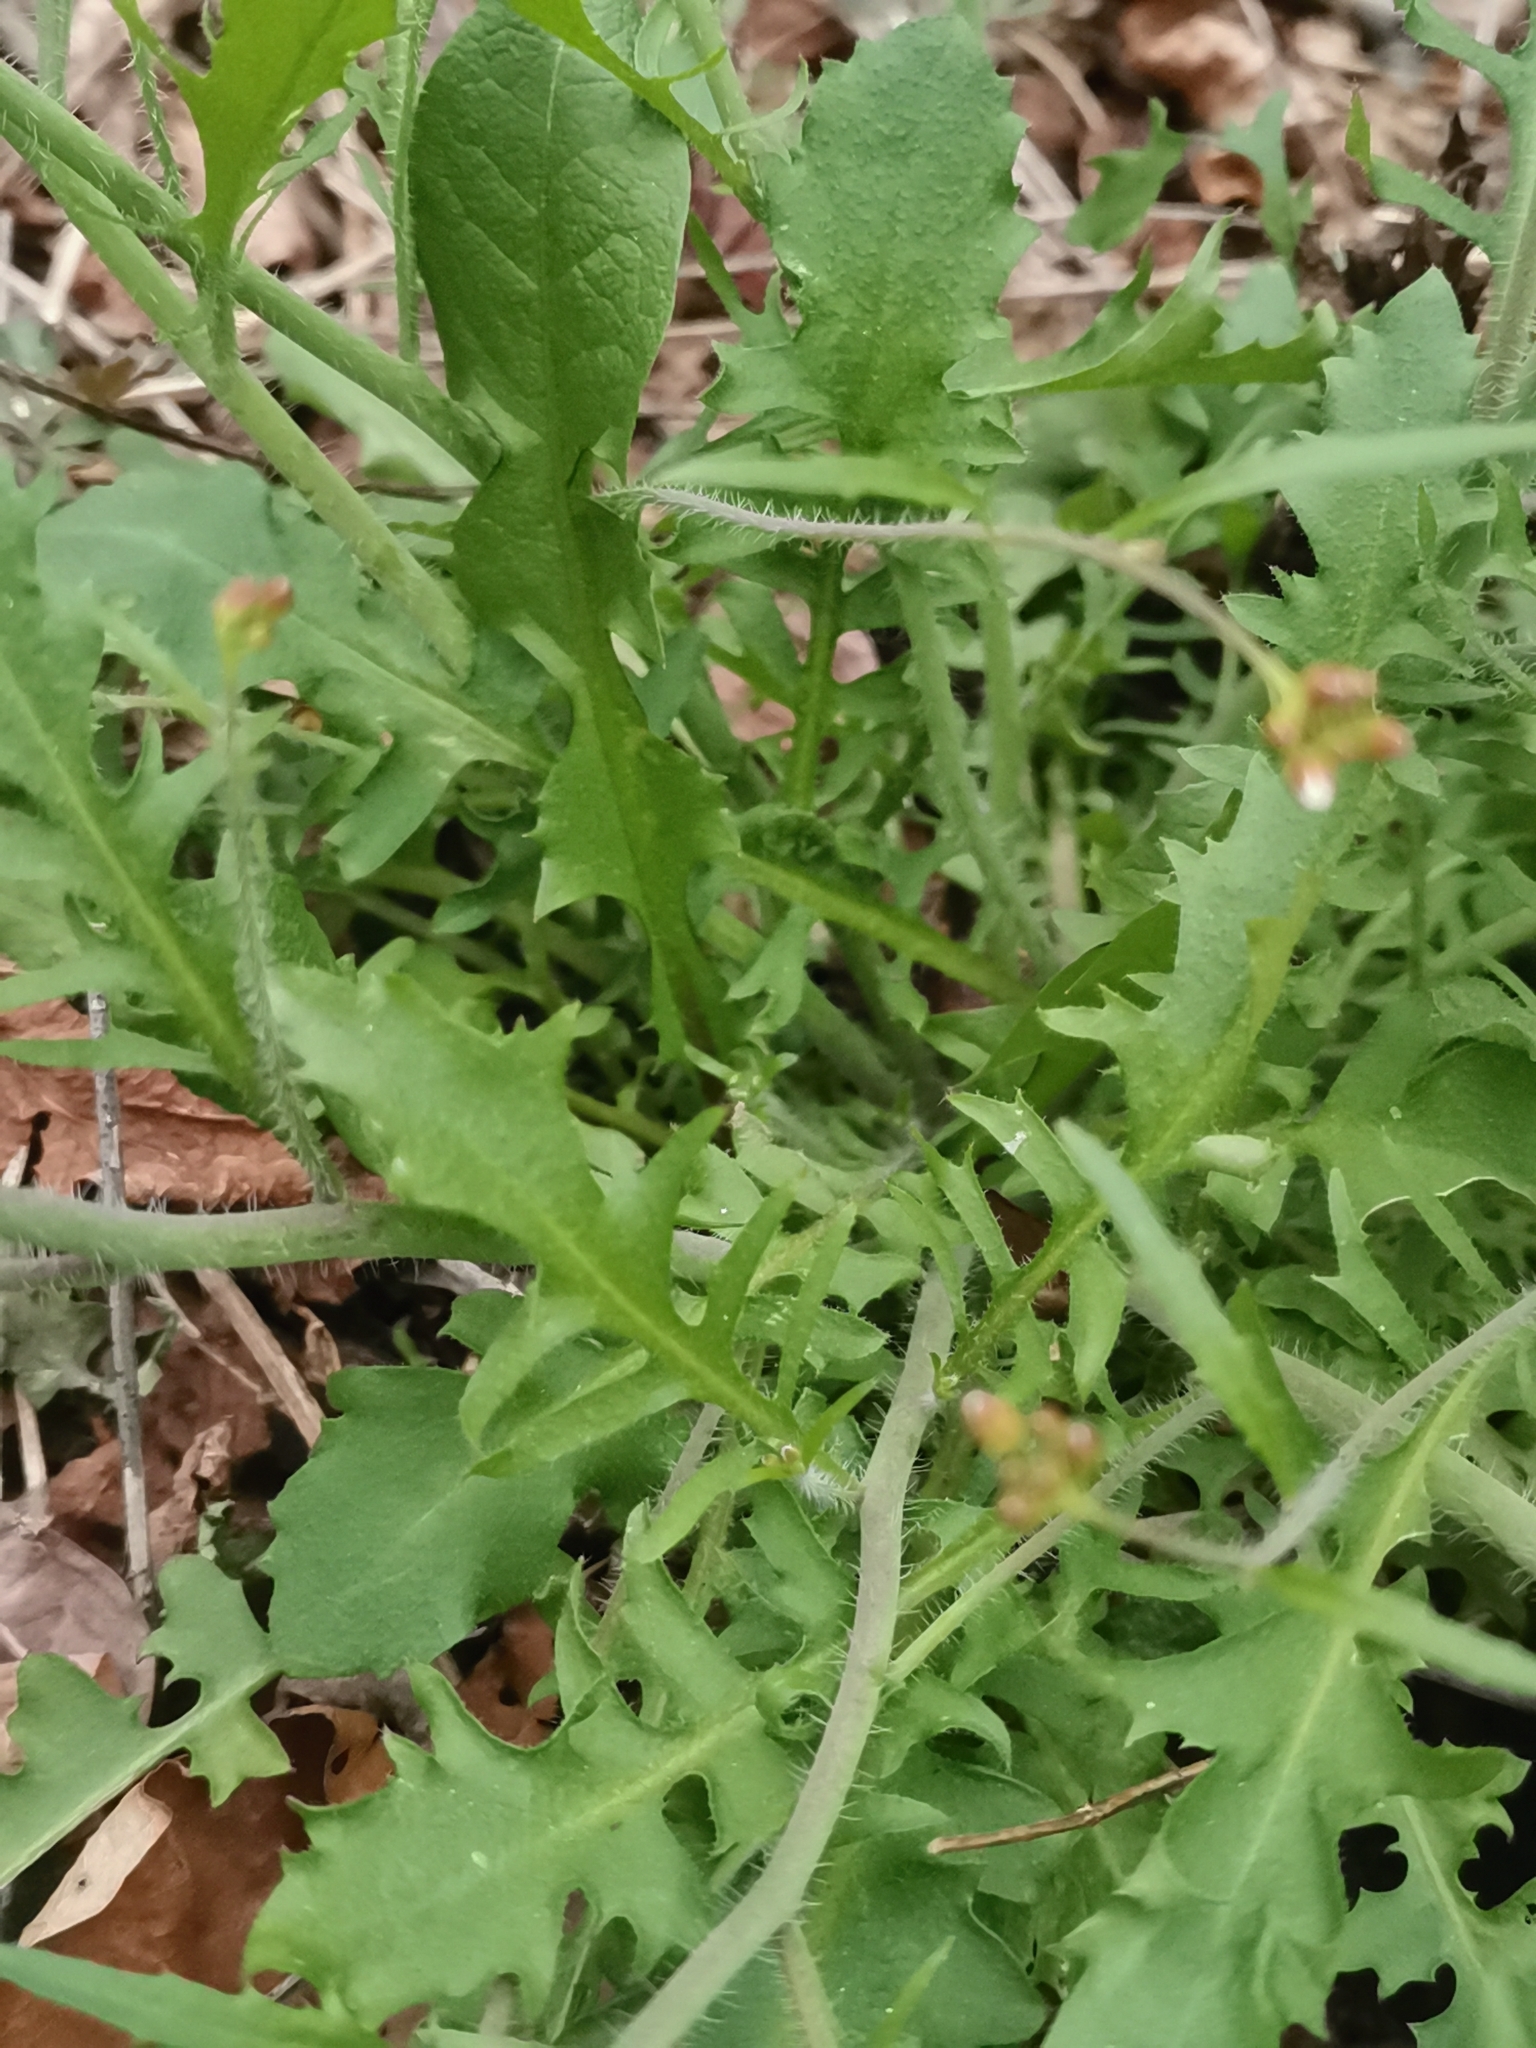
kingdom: Plantae
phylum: Tracheophyta
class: Magnoliopsida
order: Brassicales
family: Brassicaceae
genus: Arabidopsis
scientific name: Arabidopsis arenosa
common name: Sand rock-cress
